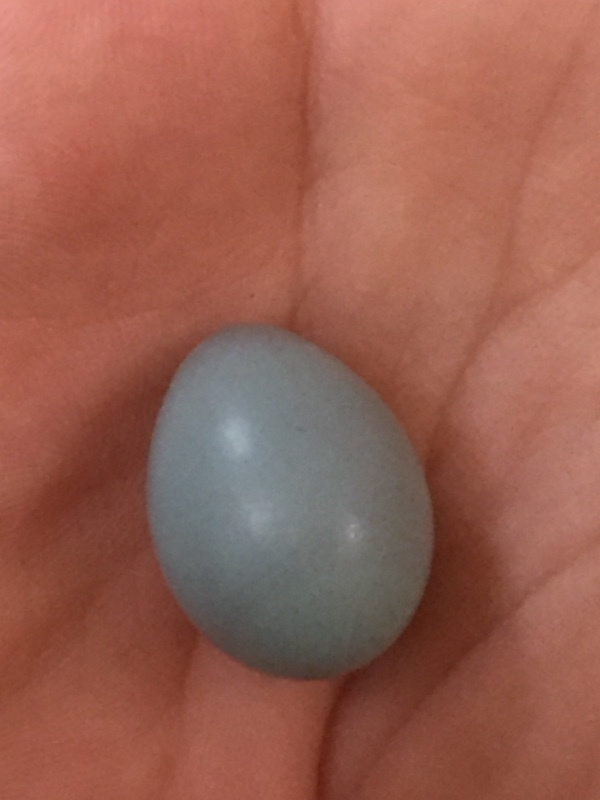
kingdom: Animalia
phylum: Chordata
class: Aves
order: Passeriformes
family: Muscicapidae
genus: Phoenicurus
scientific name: Phoenicurus phoenicurus
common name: Common redstart
